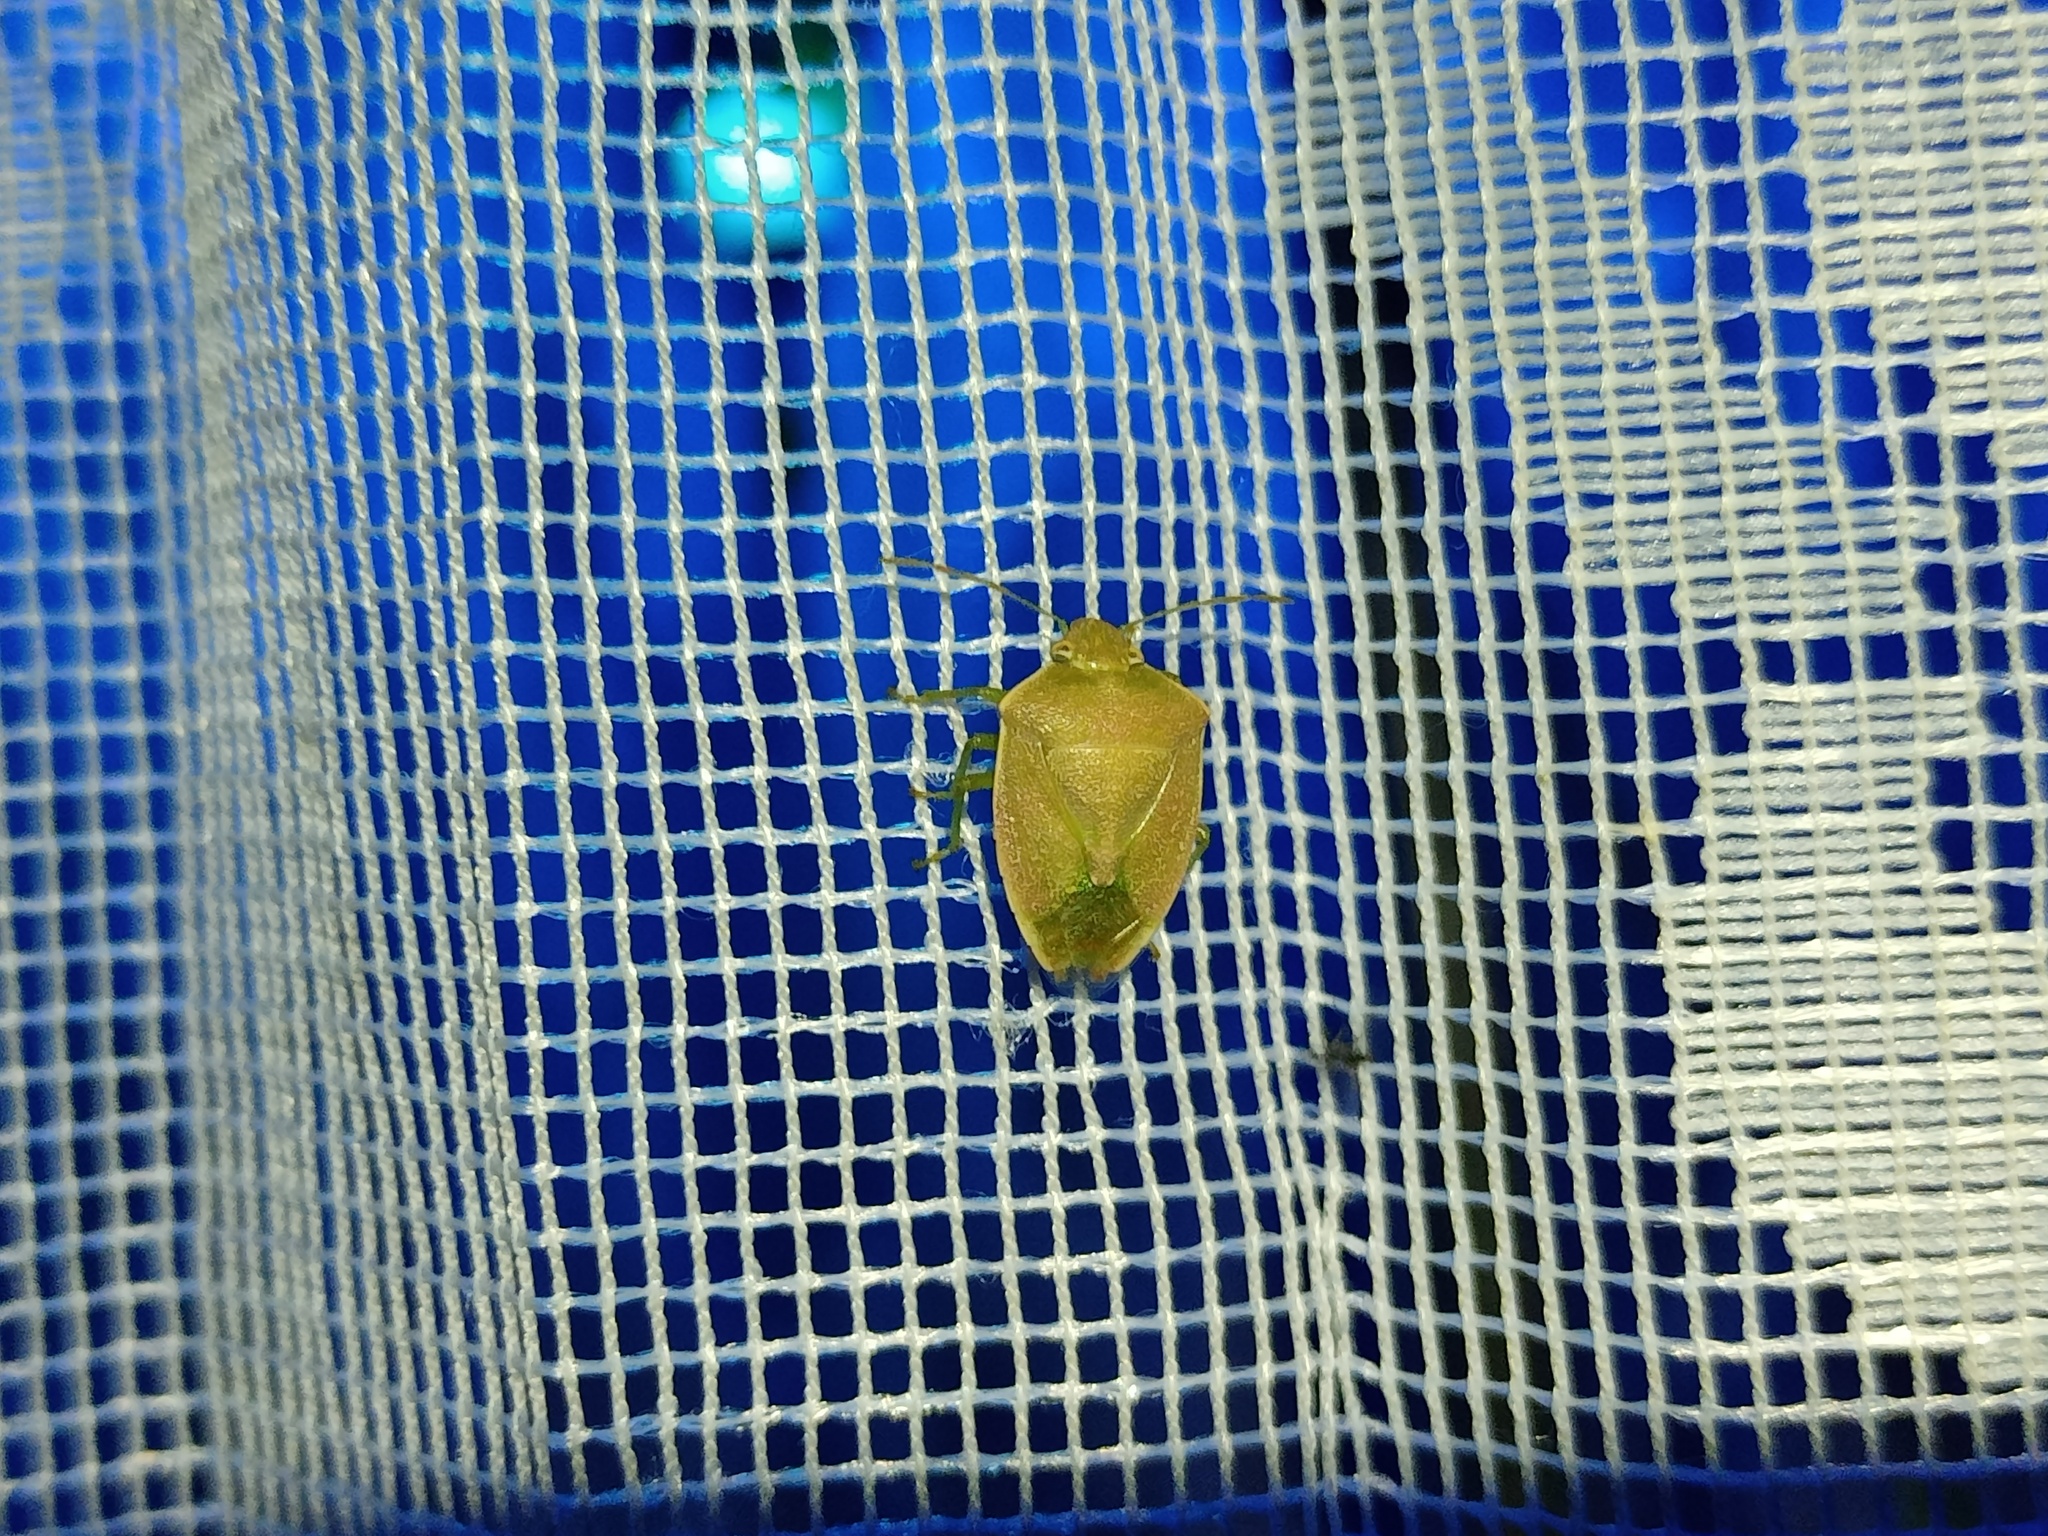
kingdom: Animalia
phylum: Arthropoda
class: Insecta
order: Hemiptera
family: Pentatomidae
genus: Acrosternum
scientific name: Acrosternum heegeri
